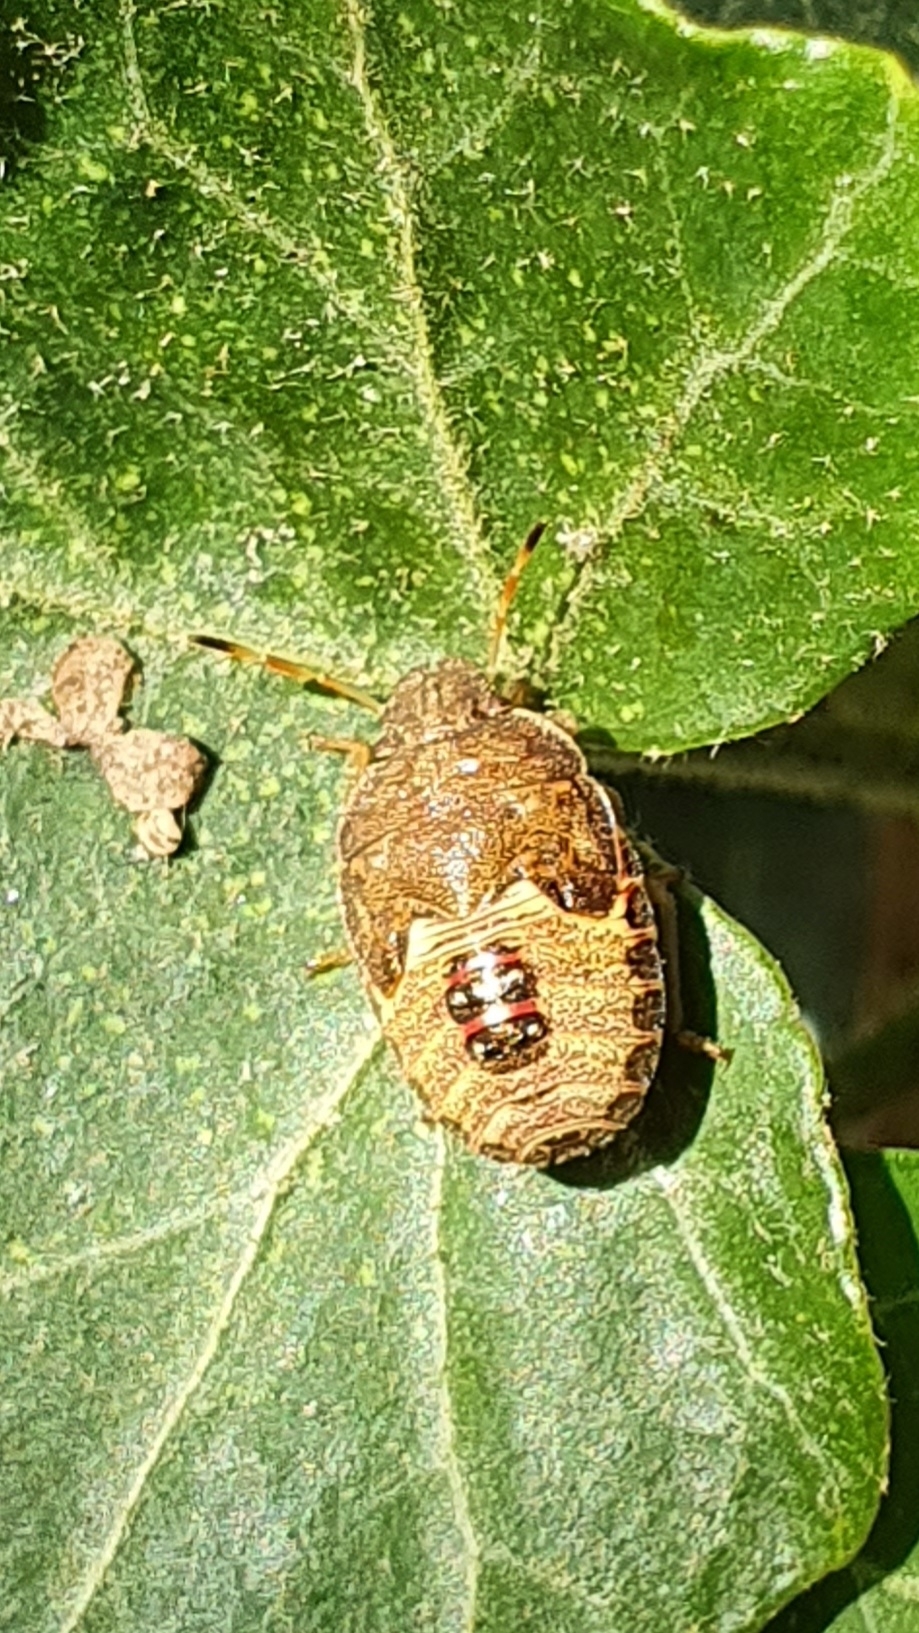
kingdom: Animalia
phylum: Arthropoda
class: Insecta
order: Hemiptera
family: Pentatomidae
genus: Holcostethus
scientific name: Holcostethus strictus
